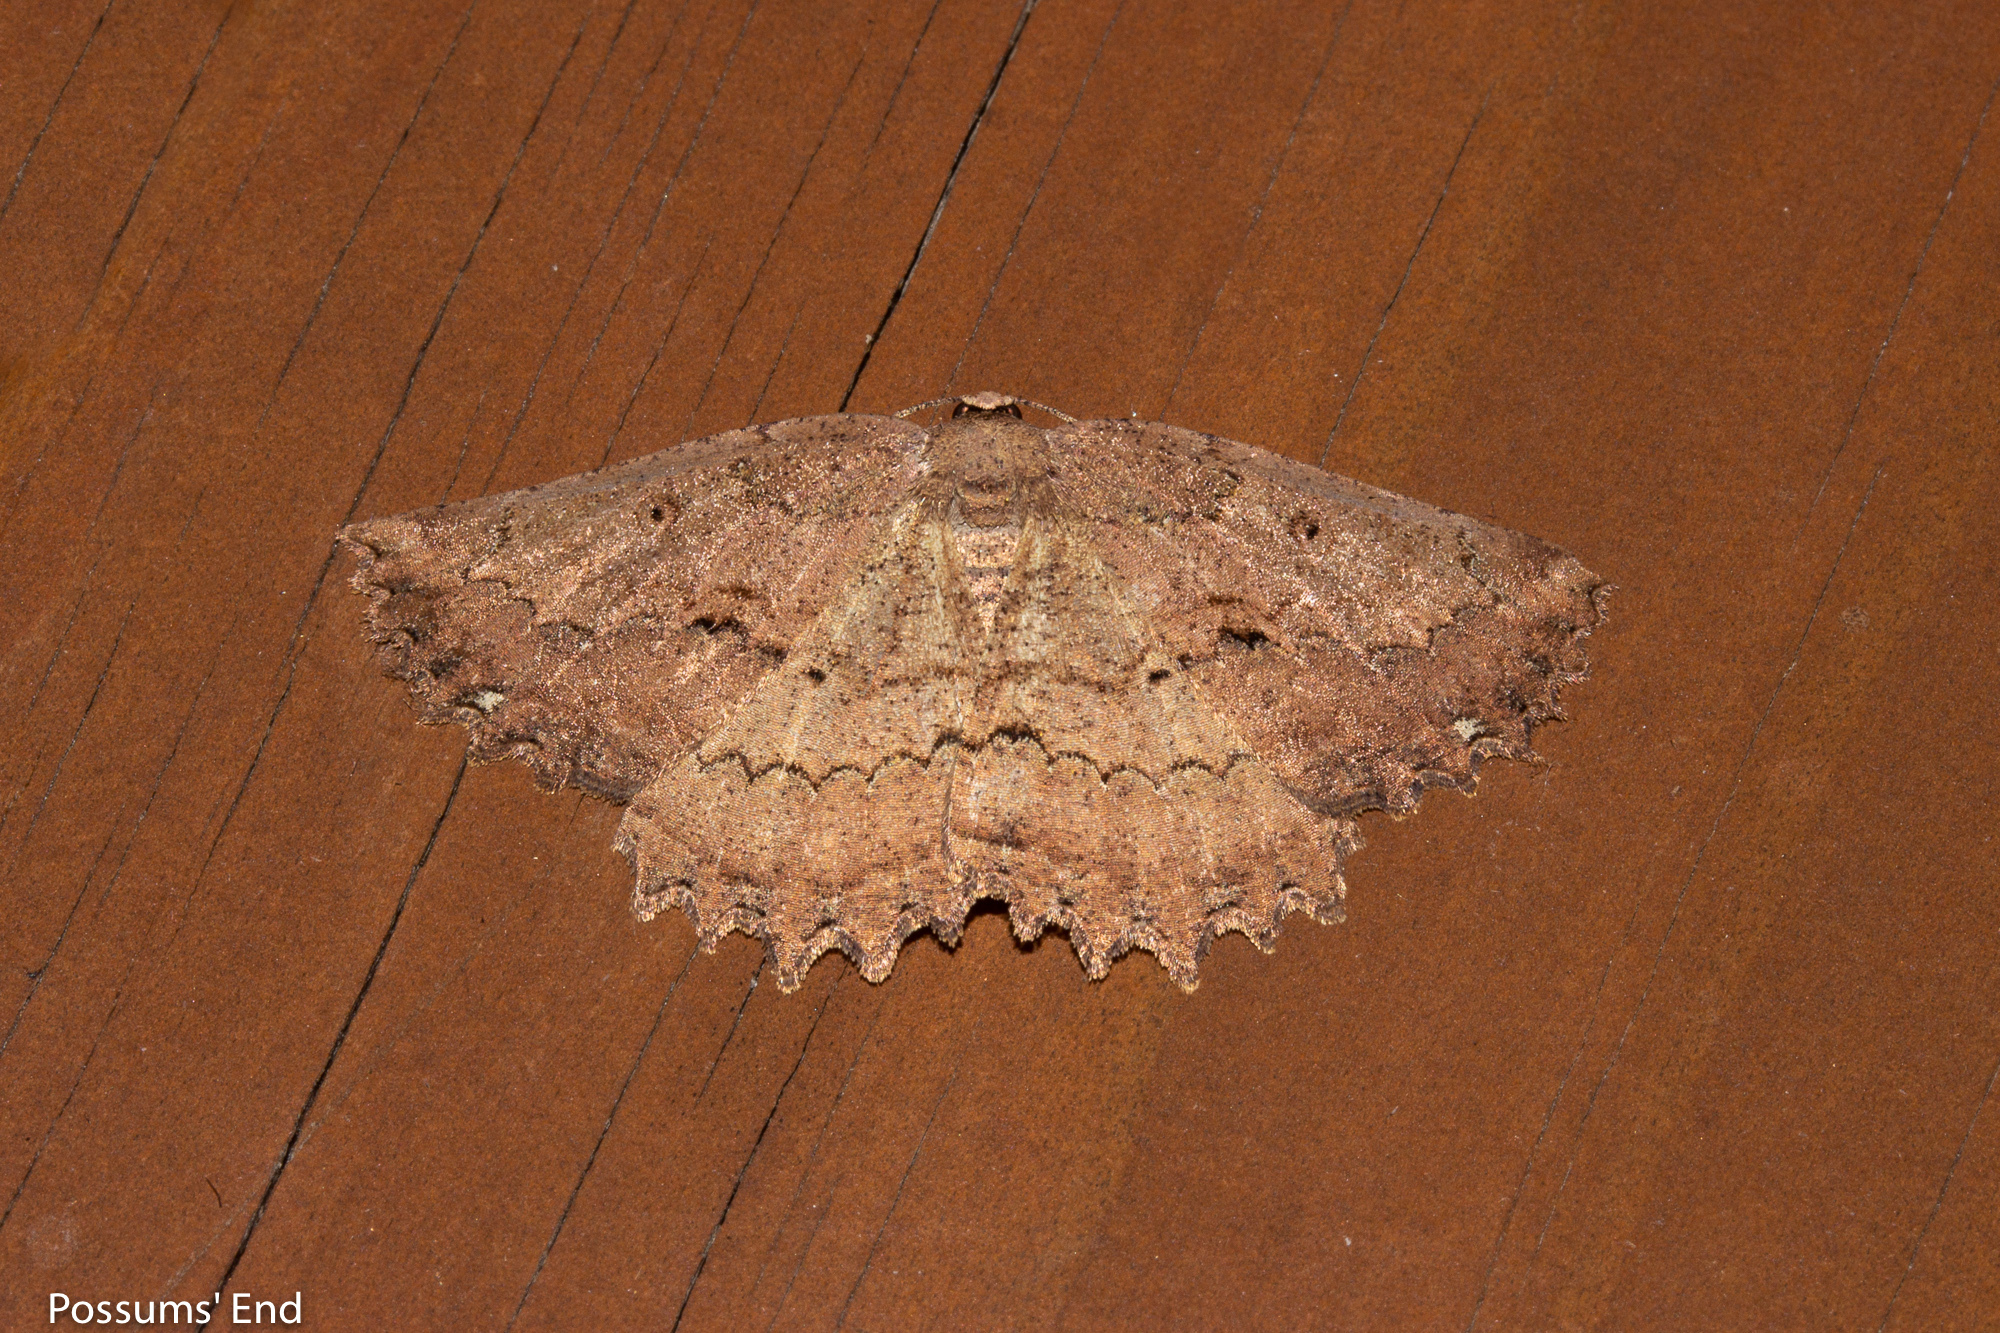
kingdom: Animalia
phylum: Arthropoda
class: Insecta
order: Lepidoptera
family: Geometridae
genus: Gellonia
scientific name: Gellonia pannularia
